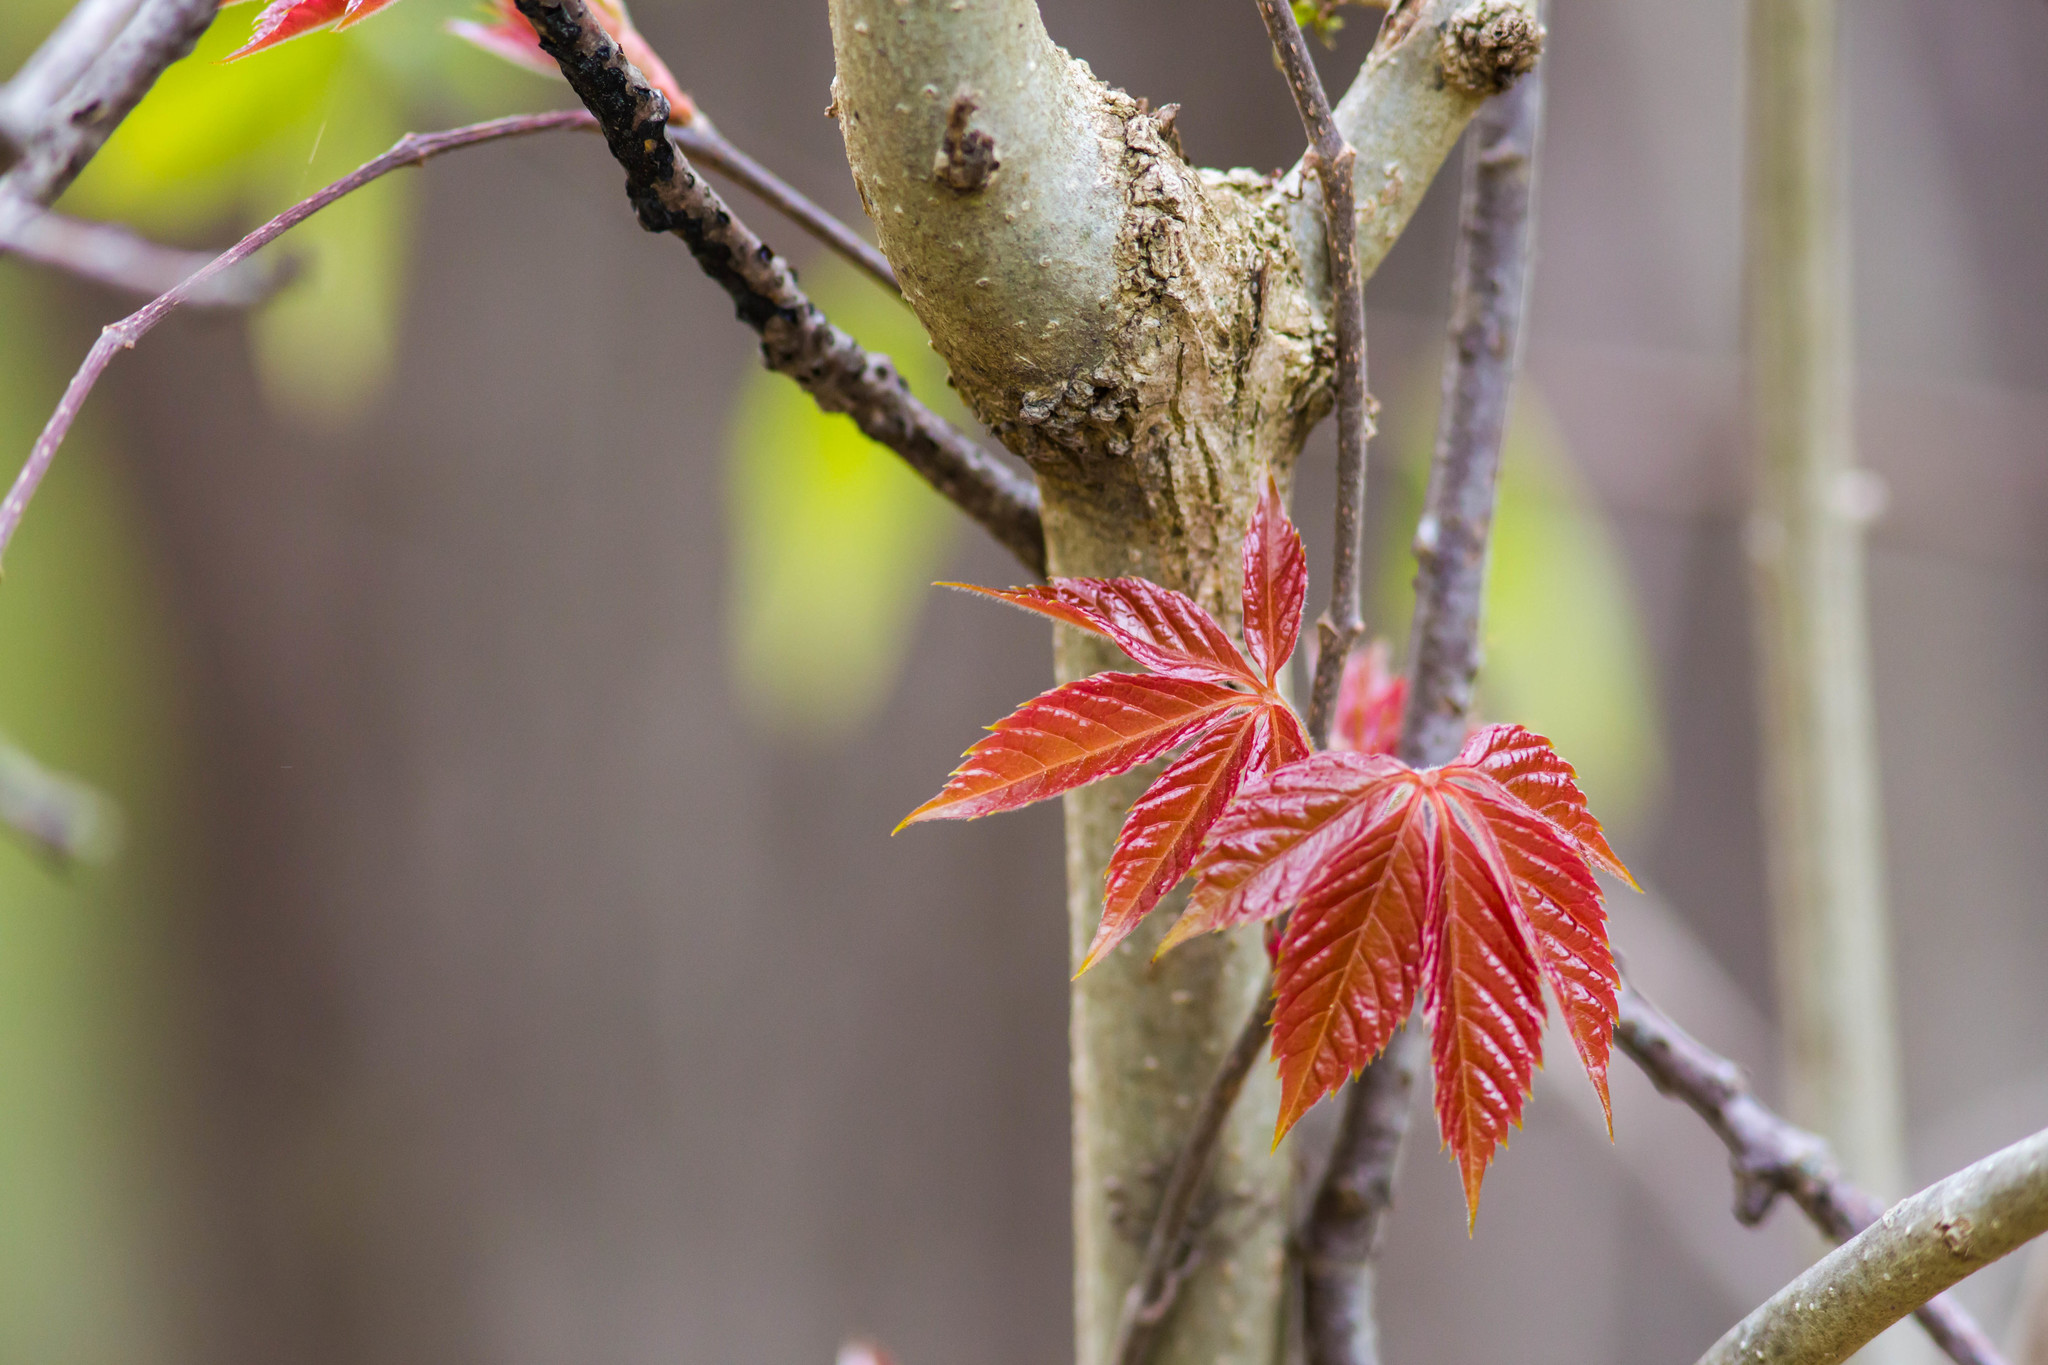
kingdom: Plantae
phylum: Tracheophyta
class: Magnoliopsida
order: Vitales
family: Vitaceae
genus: Parthenocissus
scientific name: Parthenocissus quinquefolia
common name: Virginia-creeper
